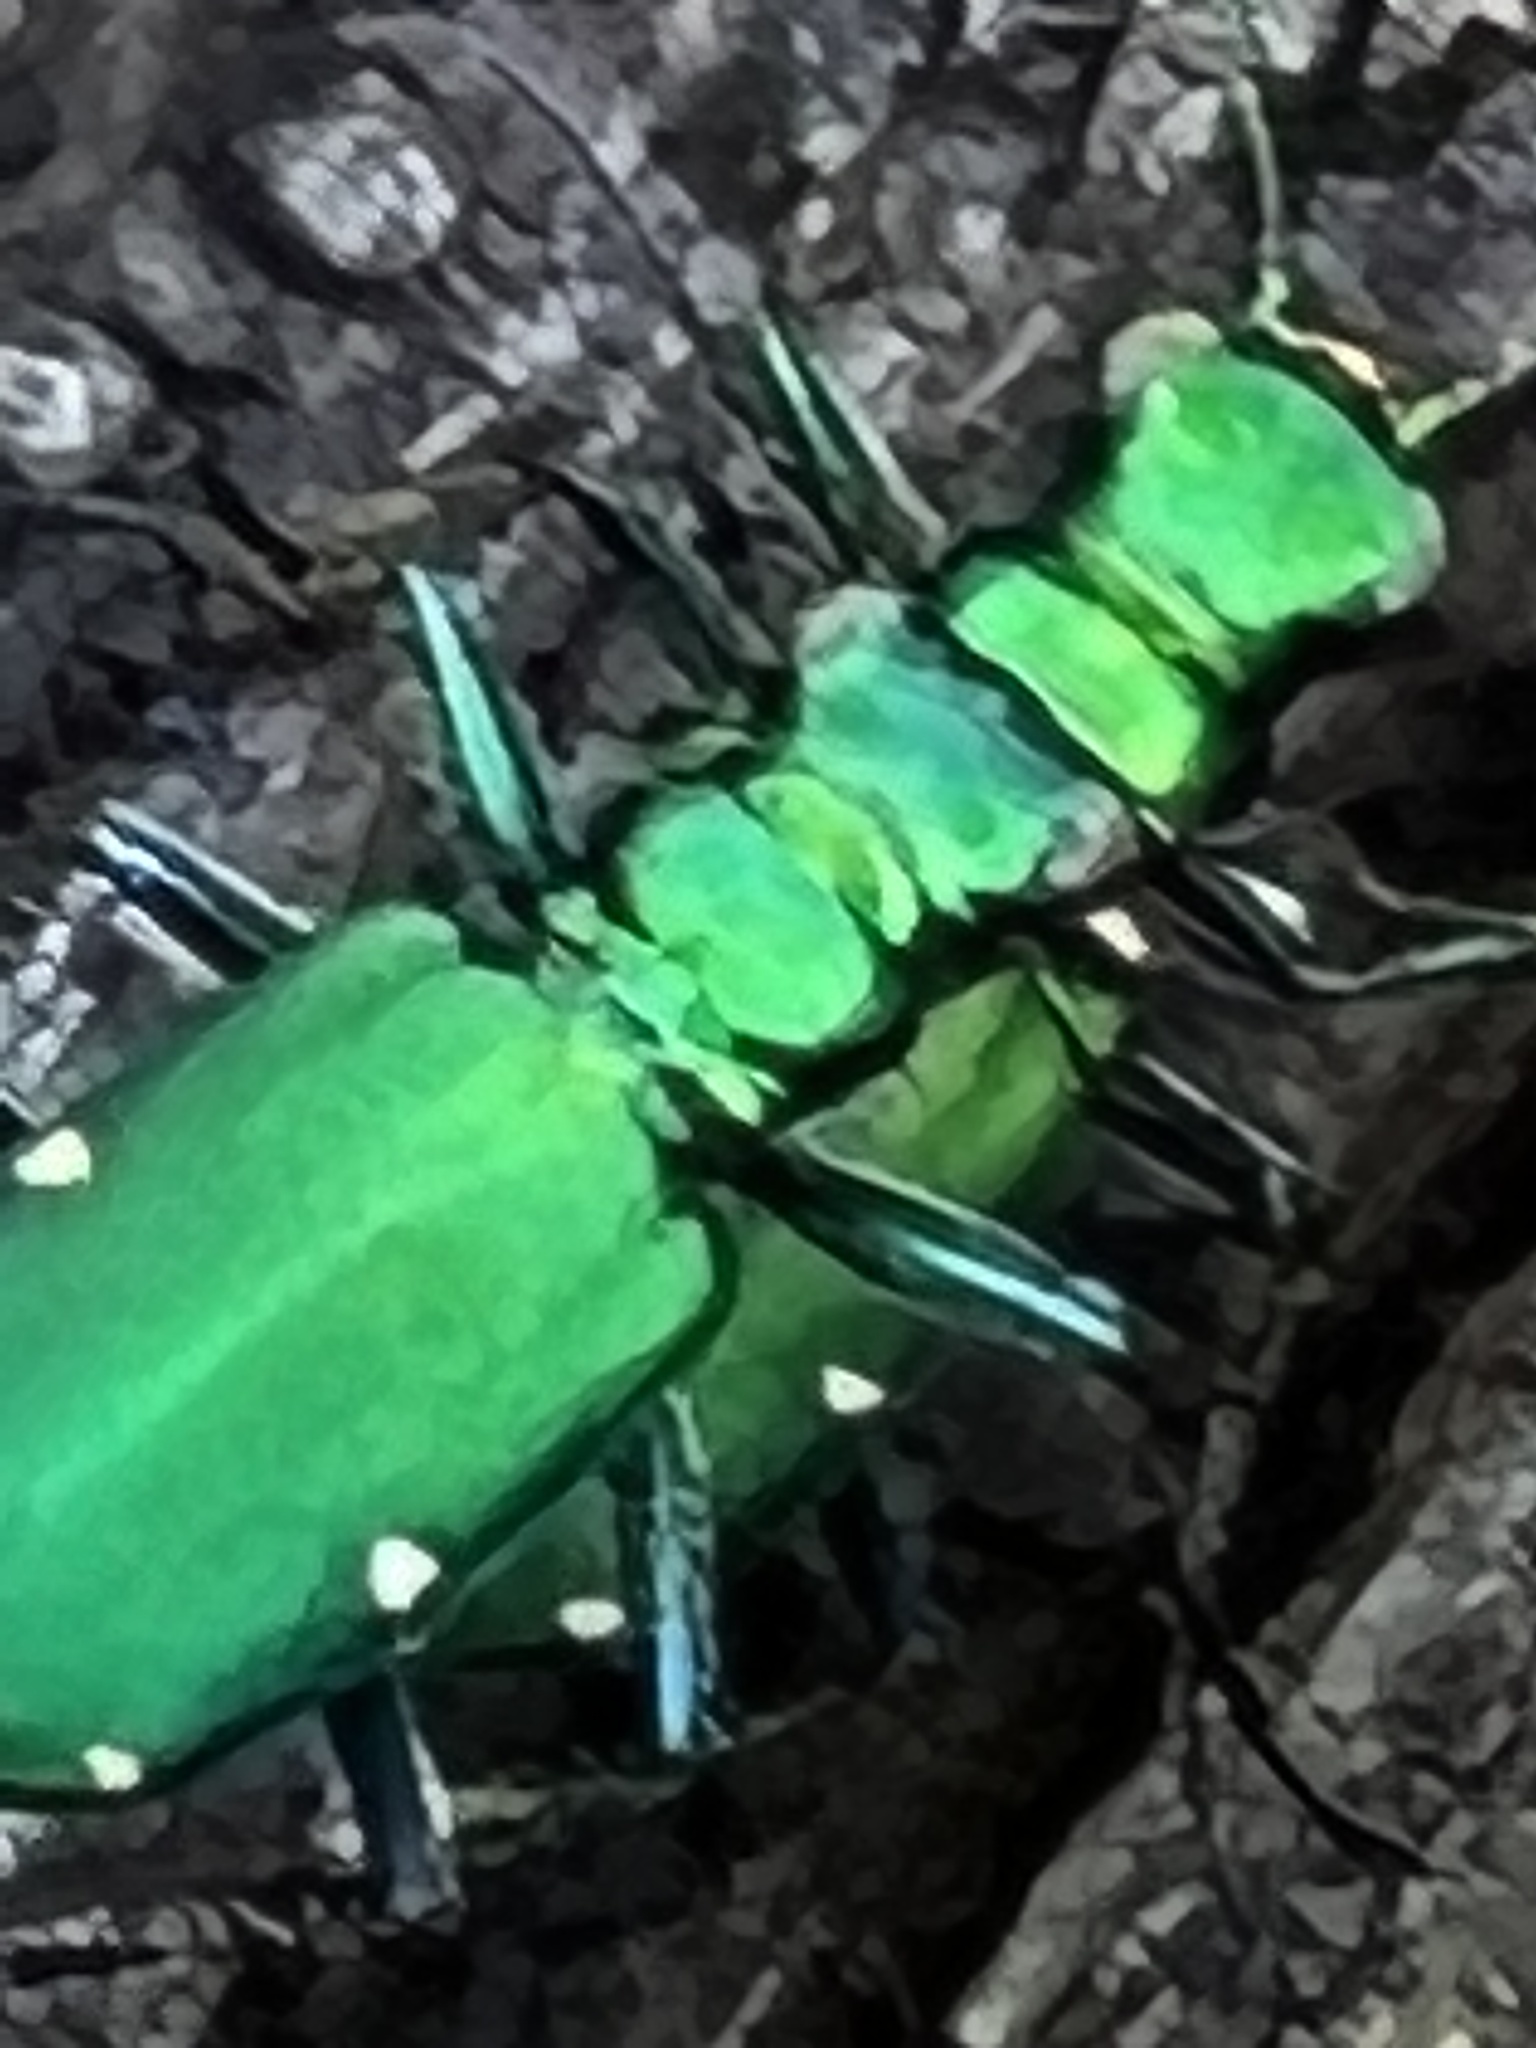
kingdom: Animalia
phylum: Arthropoda
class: Insecta
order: Coleoptera
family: Carabidae
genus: Cicindela
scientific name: Cicindela sexguttata
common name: Six-spotted tiger beetle
